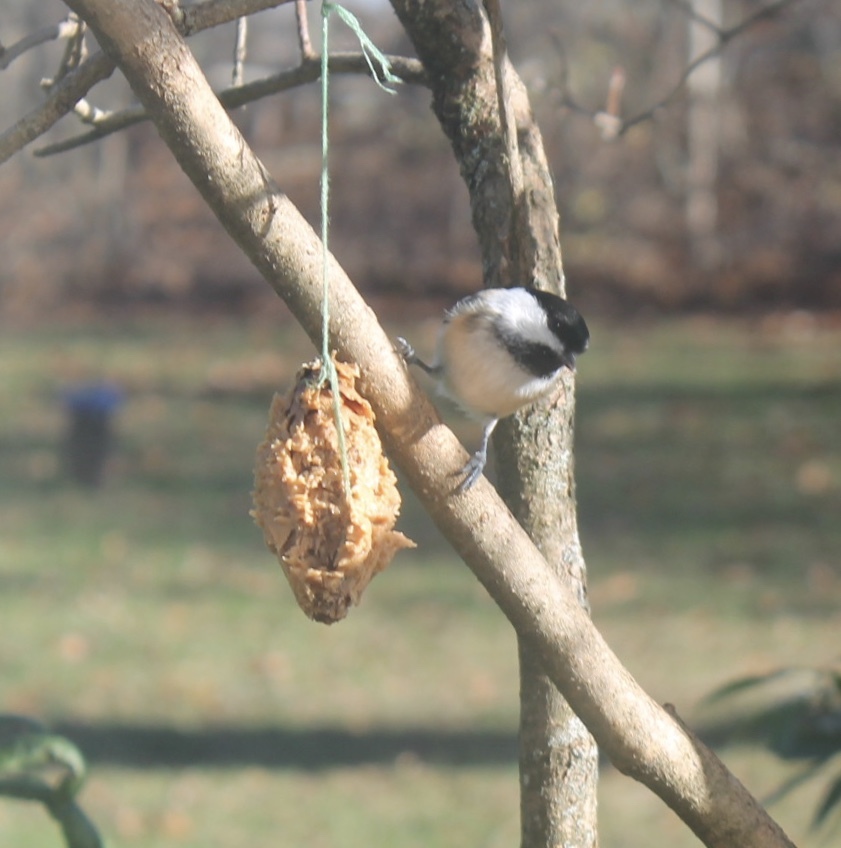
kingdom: Animalia
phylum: Chordata
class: Aves
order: Passeriformes
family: Paridae
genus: Poecile
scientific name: Poecile atricapillus
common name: Black-capped chickadee
